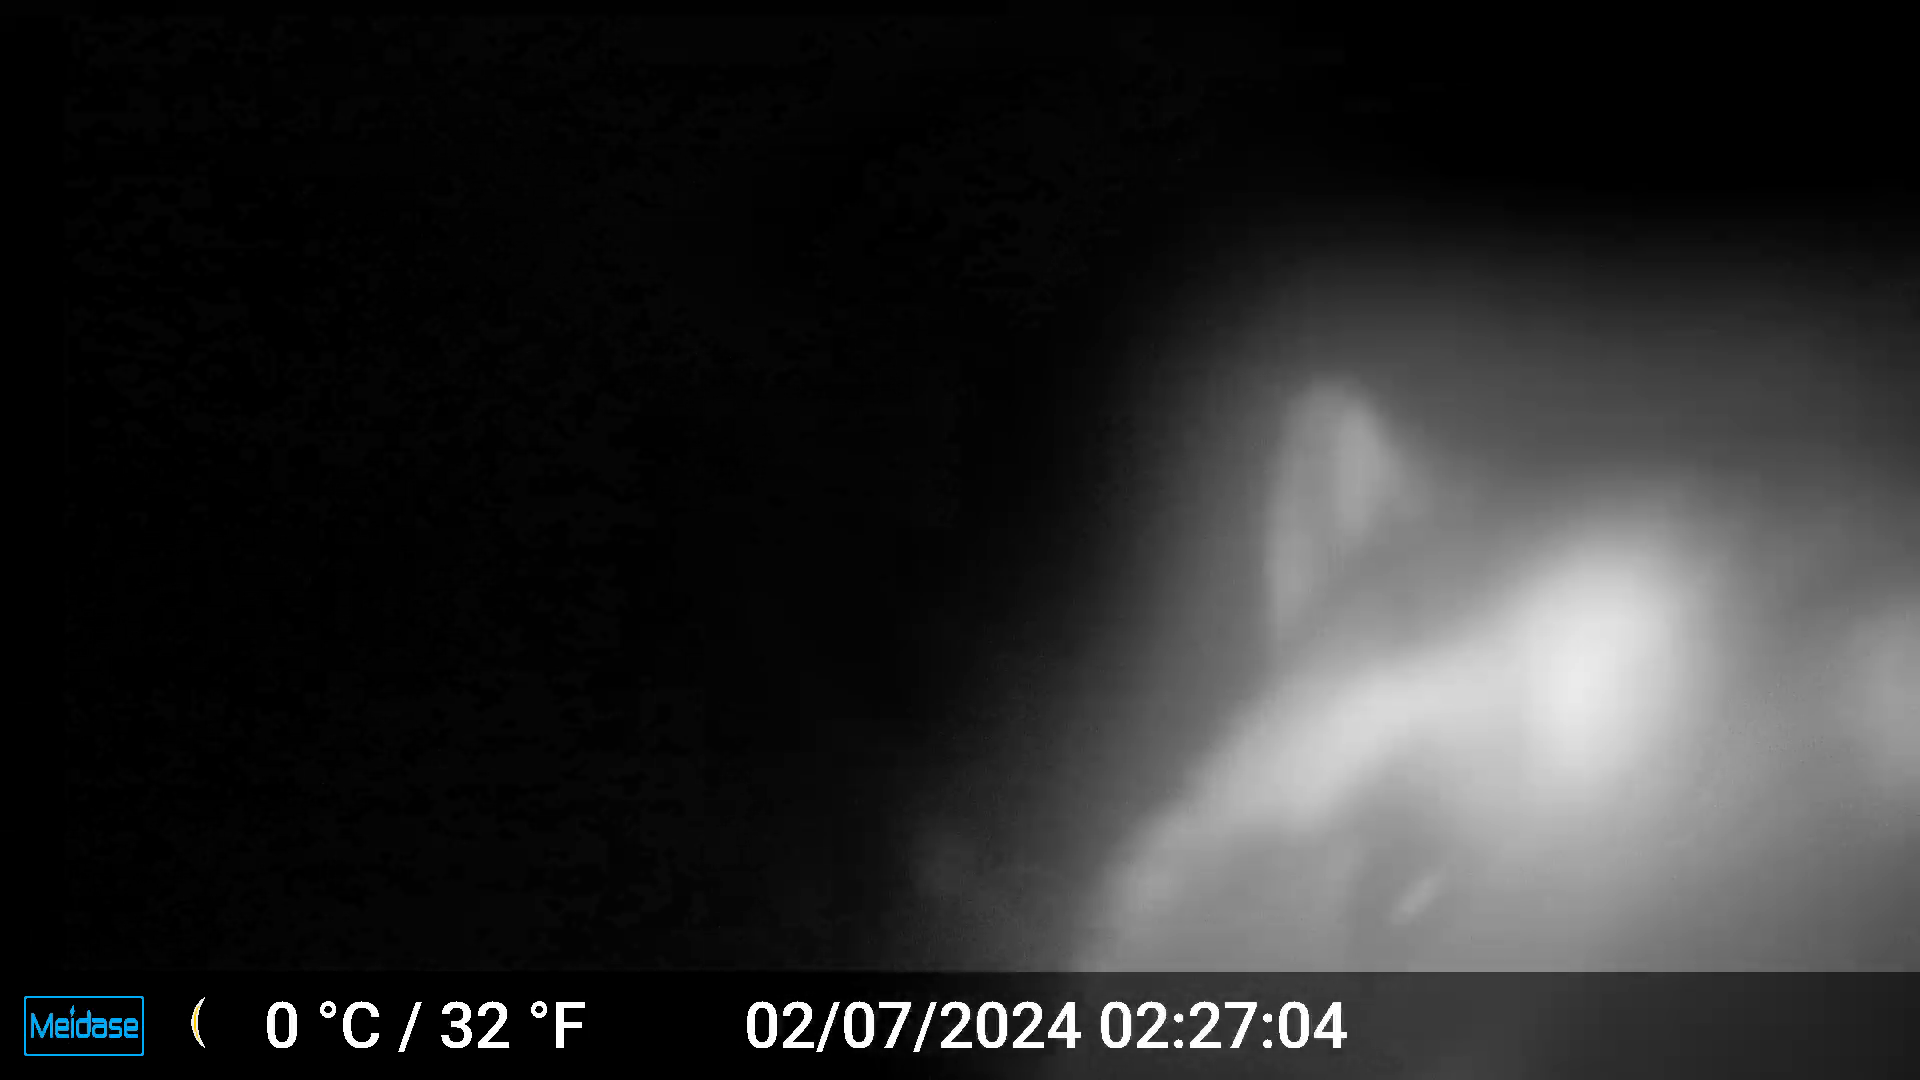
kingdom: Animalia
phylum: Chordata
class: Mammalia
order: Carnivora
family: Procyonidae
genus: Procyon
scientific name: Procyon lotor
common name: Raccoon
